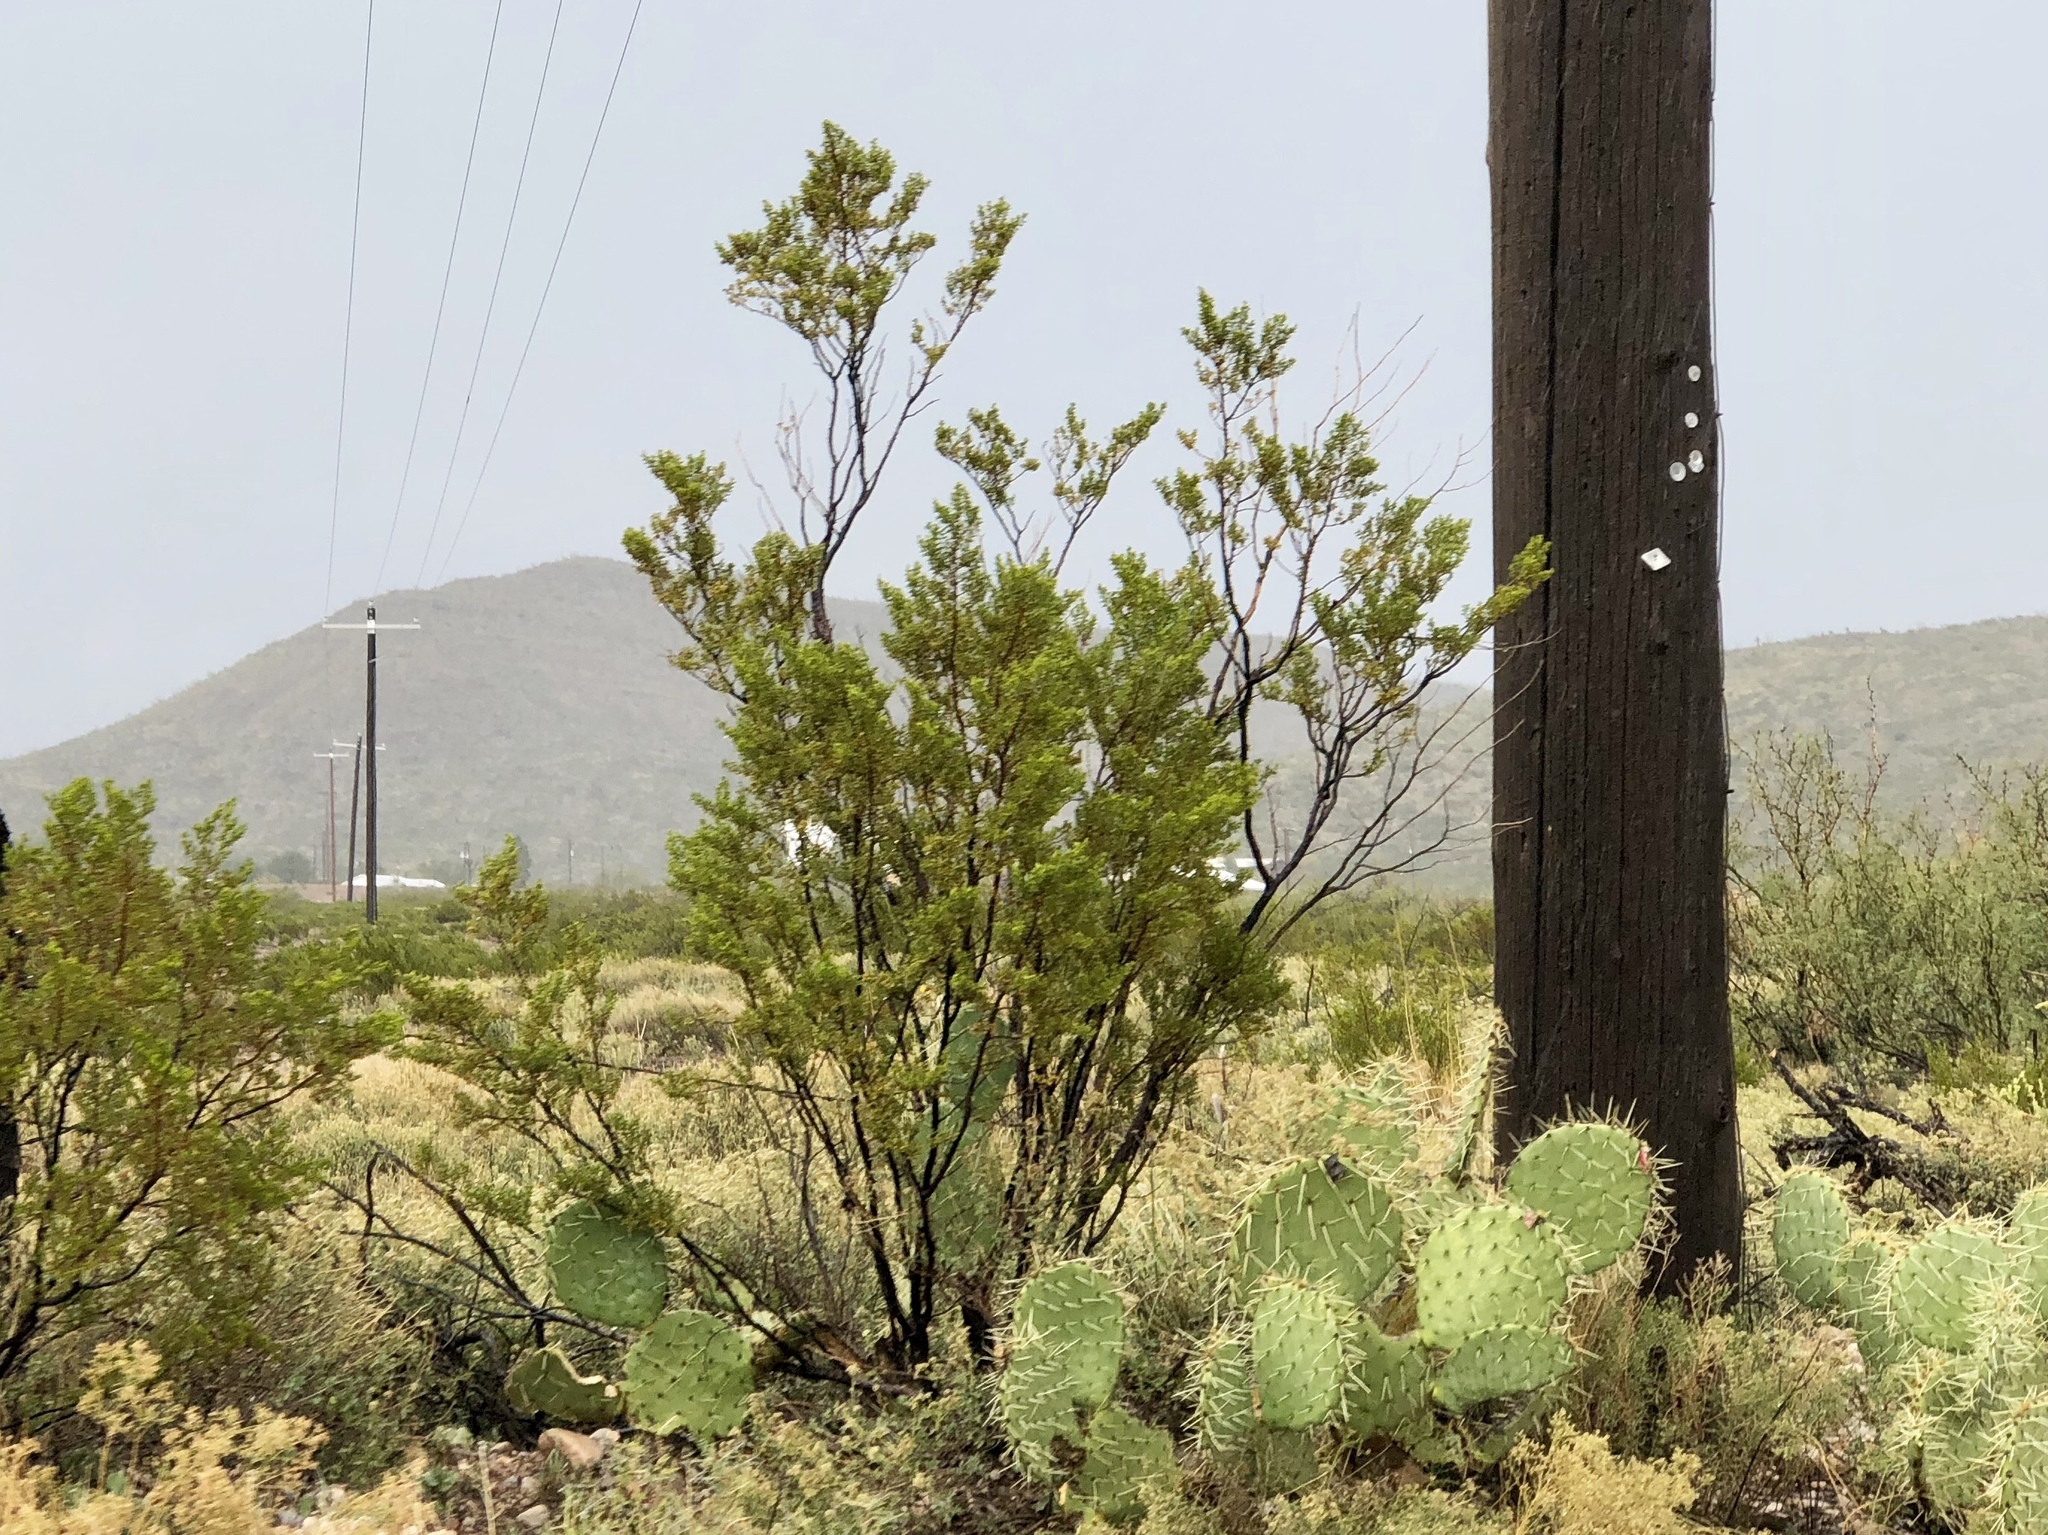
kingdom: Plantae
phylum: Tracheophyta
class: Magnoliopsida
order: Zygophyllales
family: Zygophyllaceae
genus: Larrea
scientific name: Larrea tridentata
